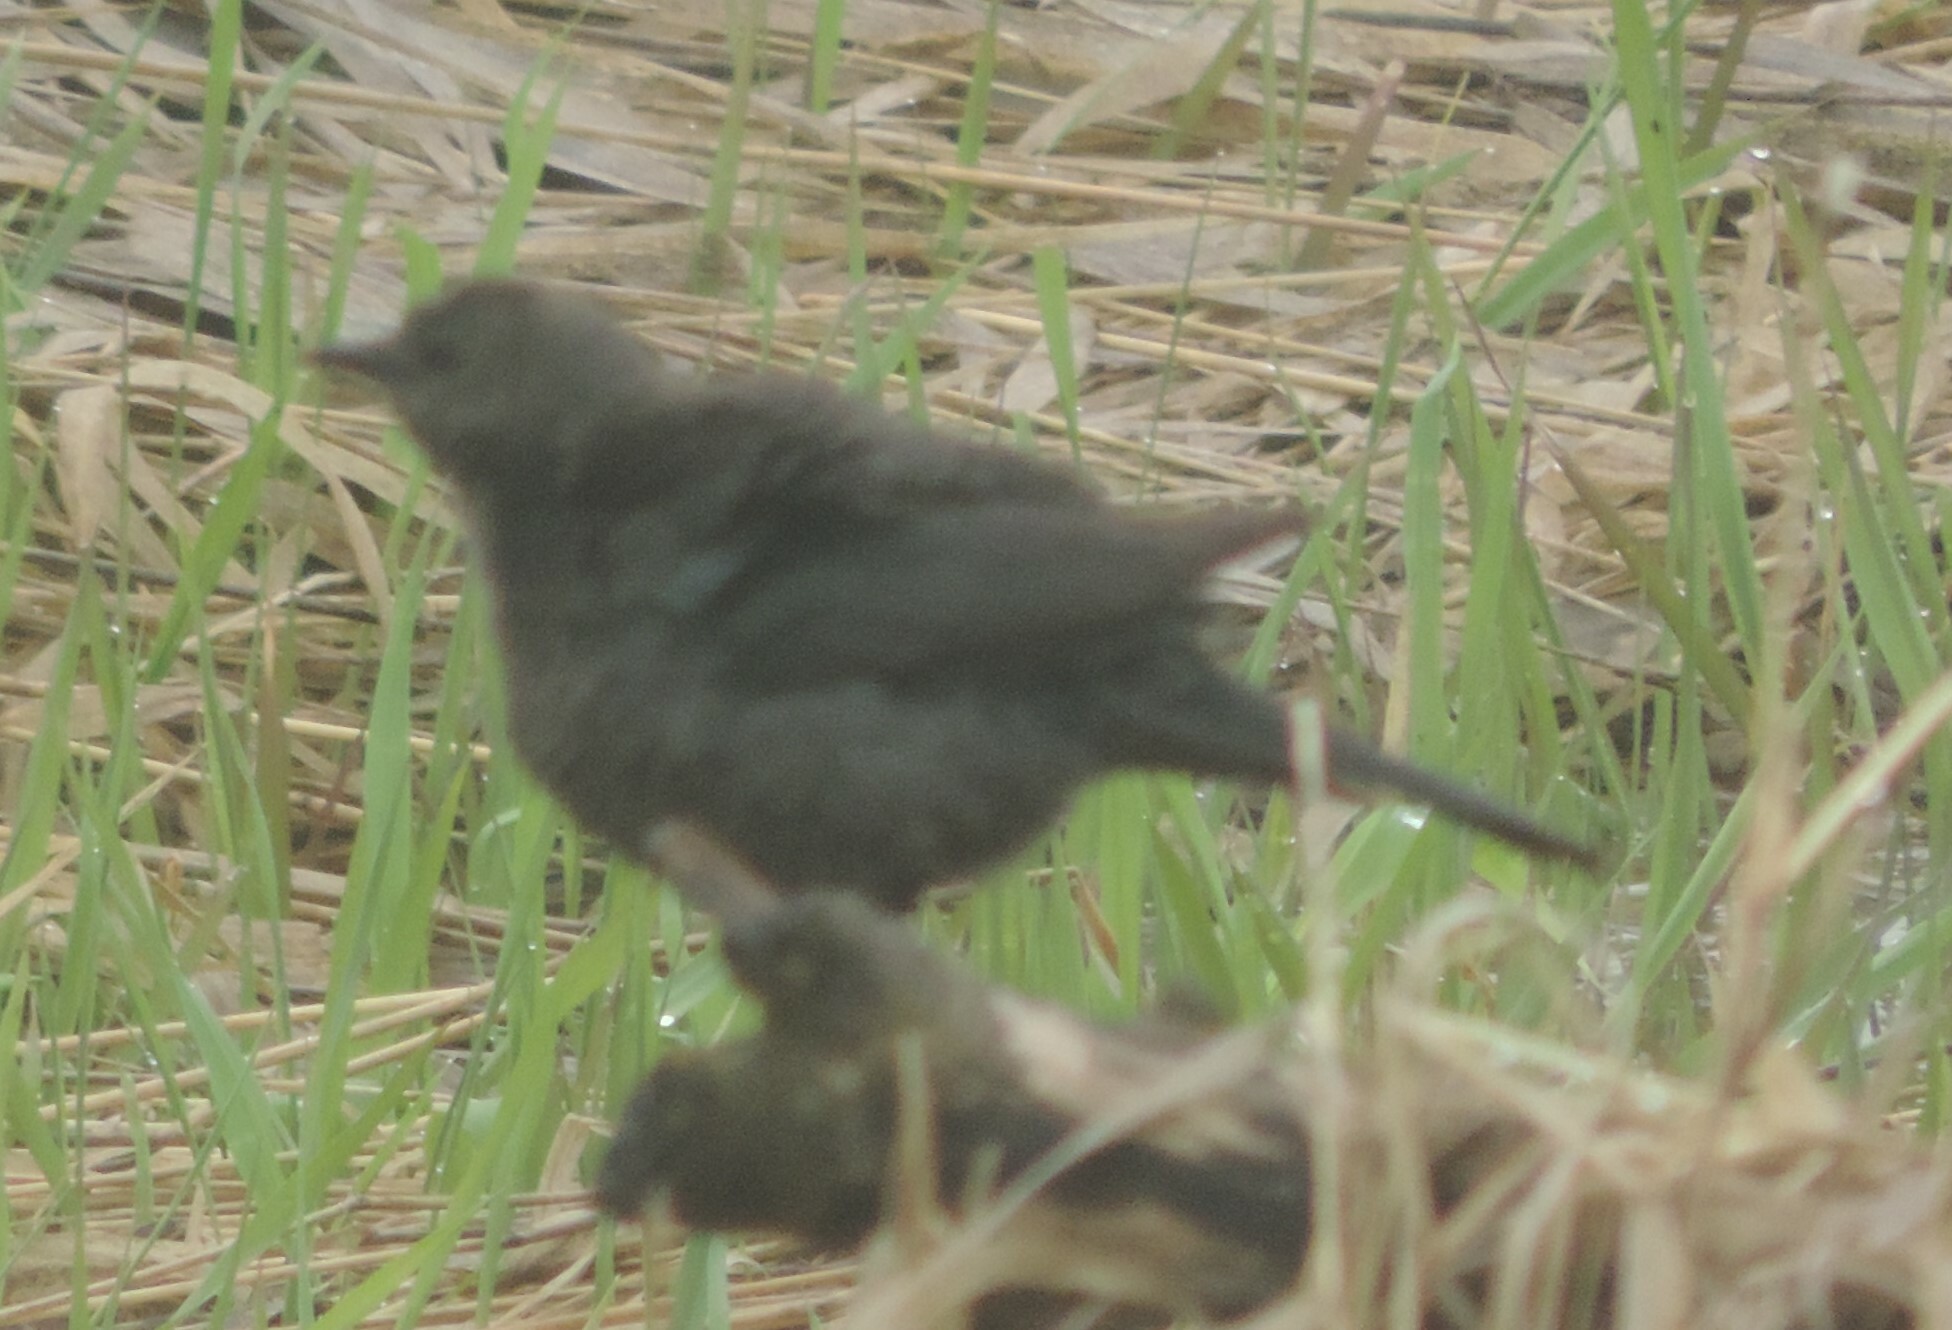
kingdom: Animalia
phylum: Chordata
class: Aves
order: Passeriformes
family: Icteridae
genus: Euphagus
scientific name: Euphagus cyanocephalus
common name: Brewer's blackbird
